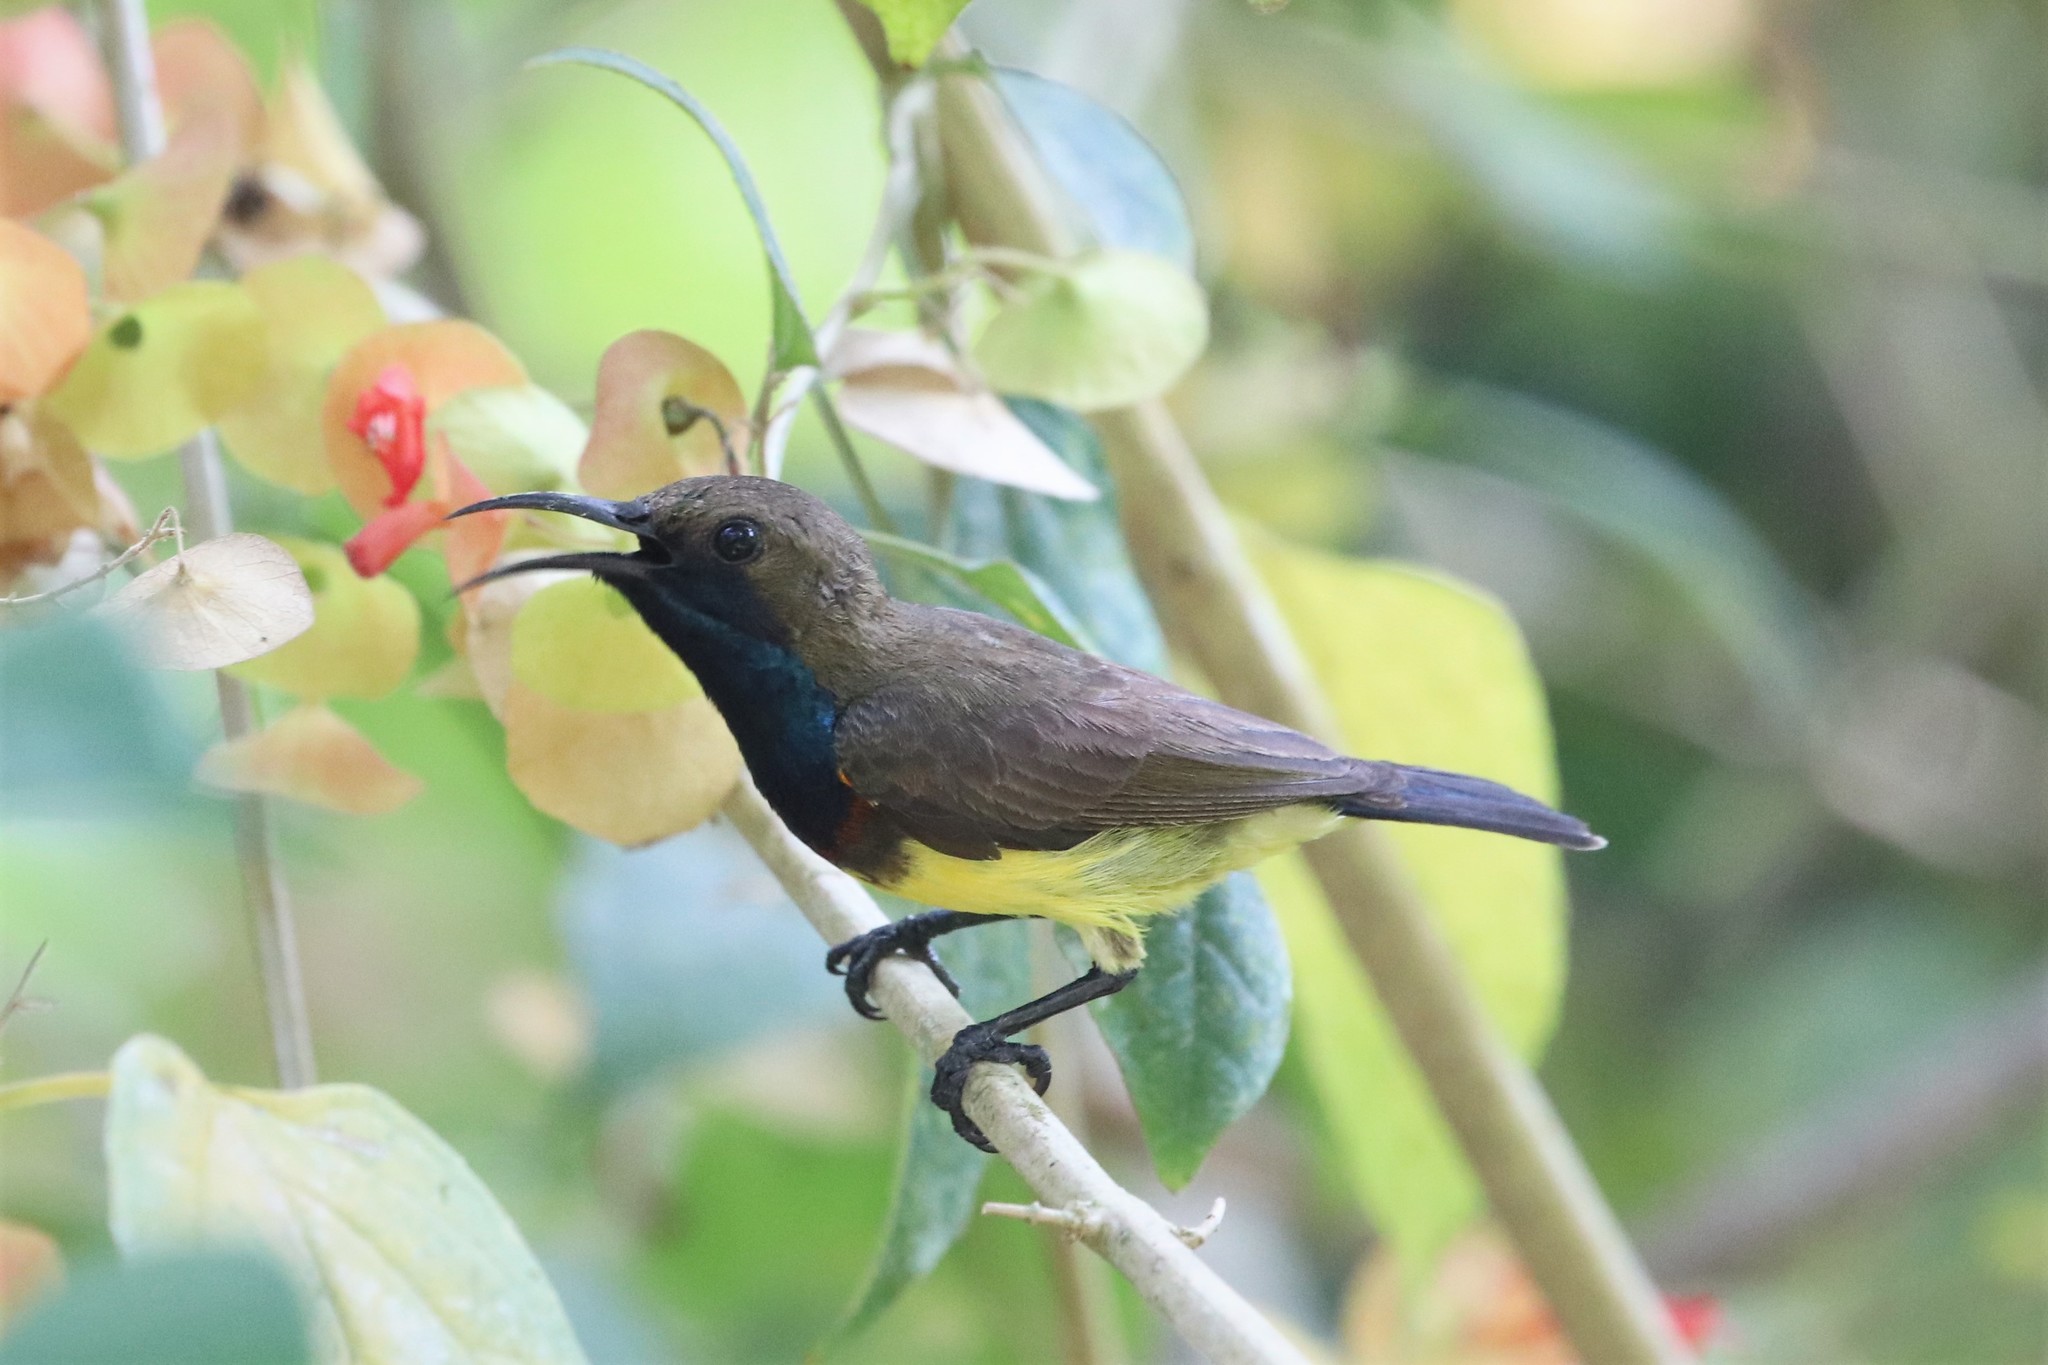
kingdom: Animalia
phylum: Chordata
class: Aves
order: Passeriformes
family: Nectariniidae
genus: Cinnyris
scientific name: Cinnyris
